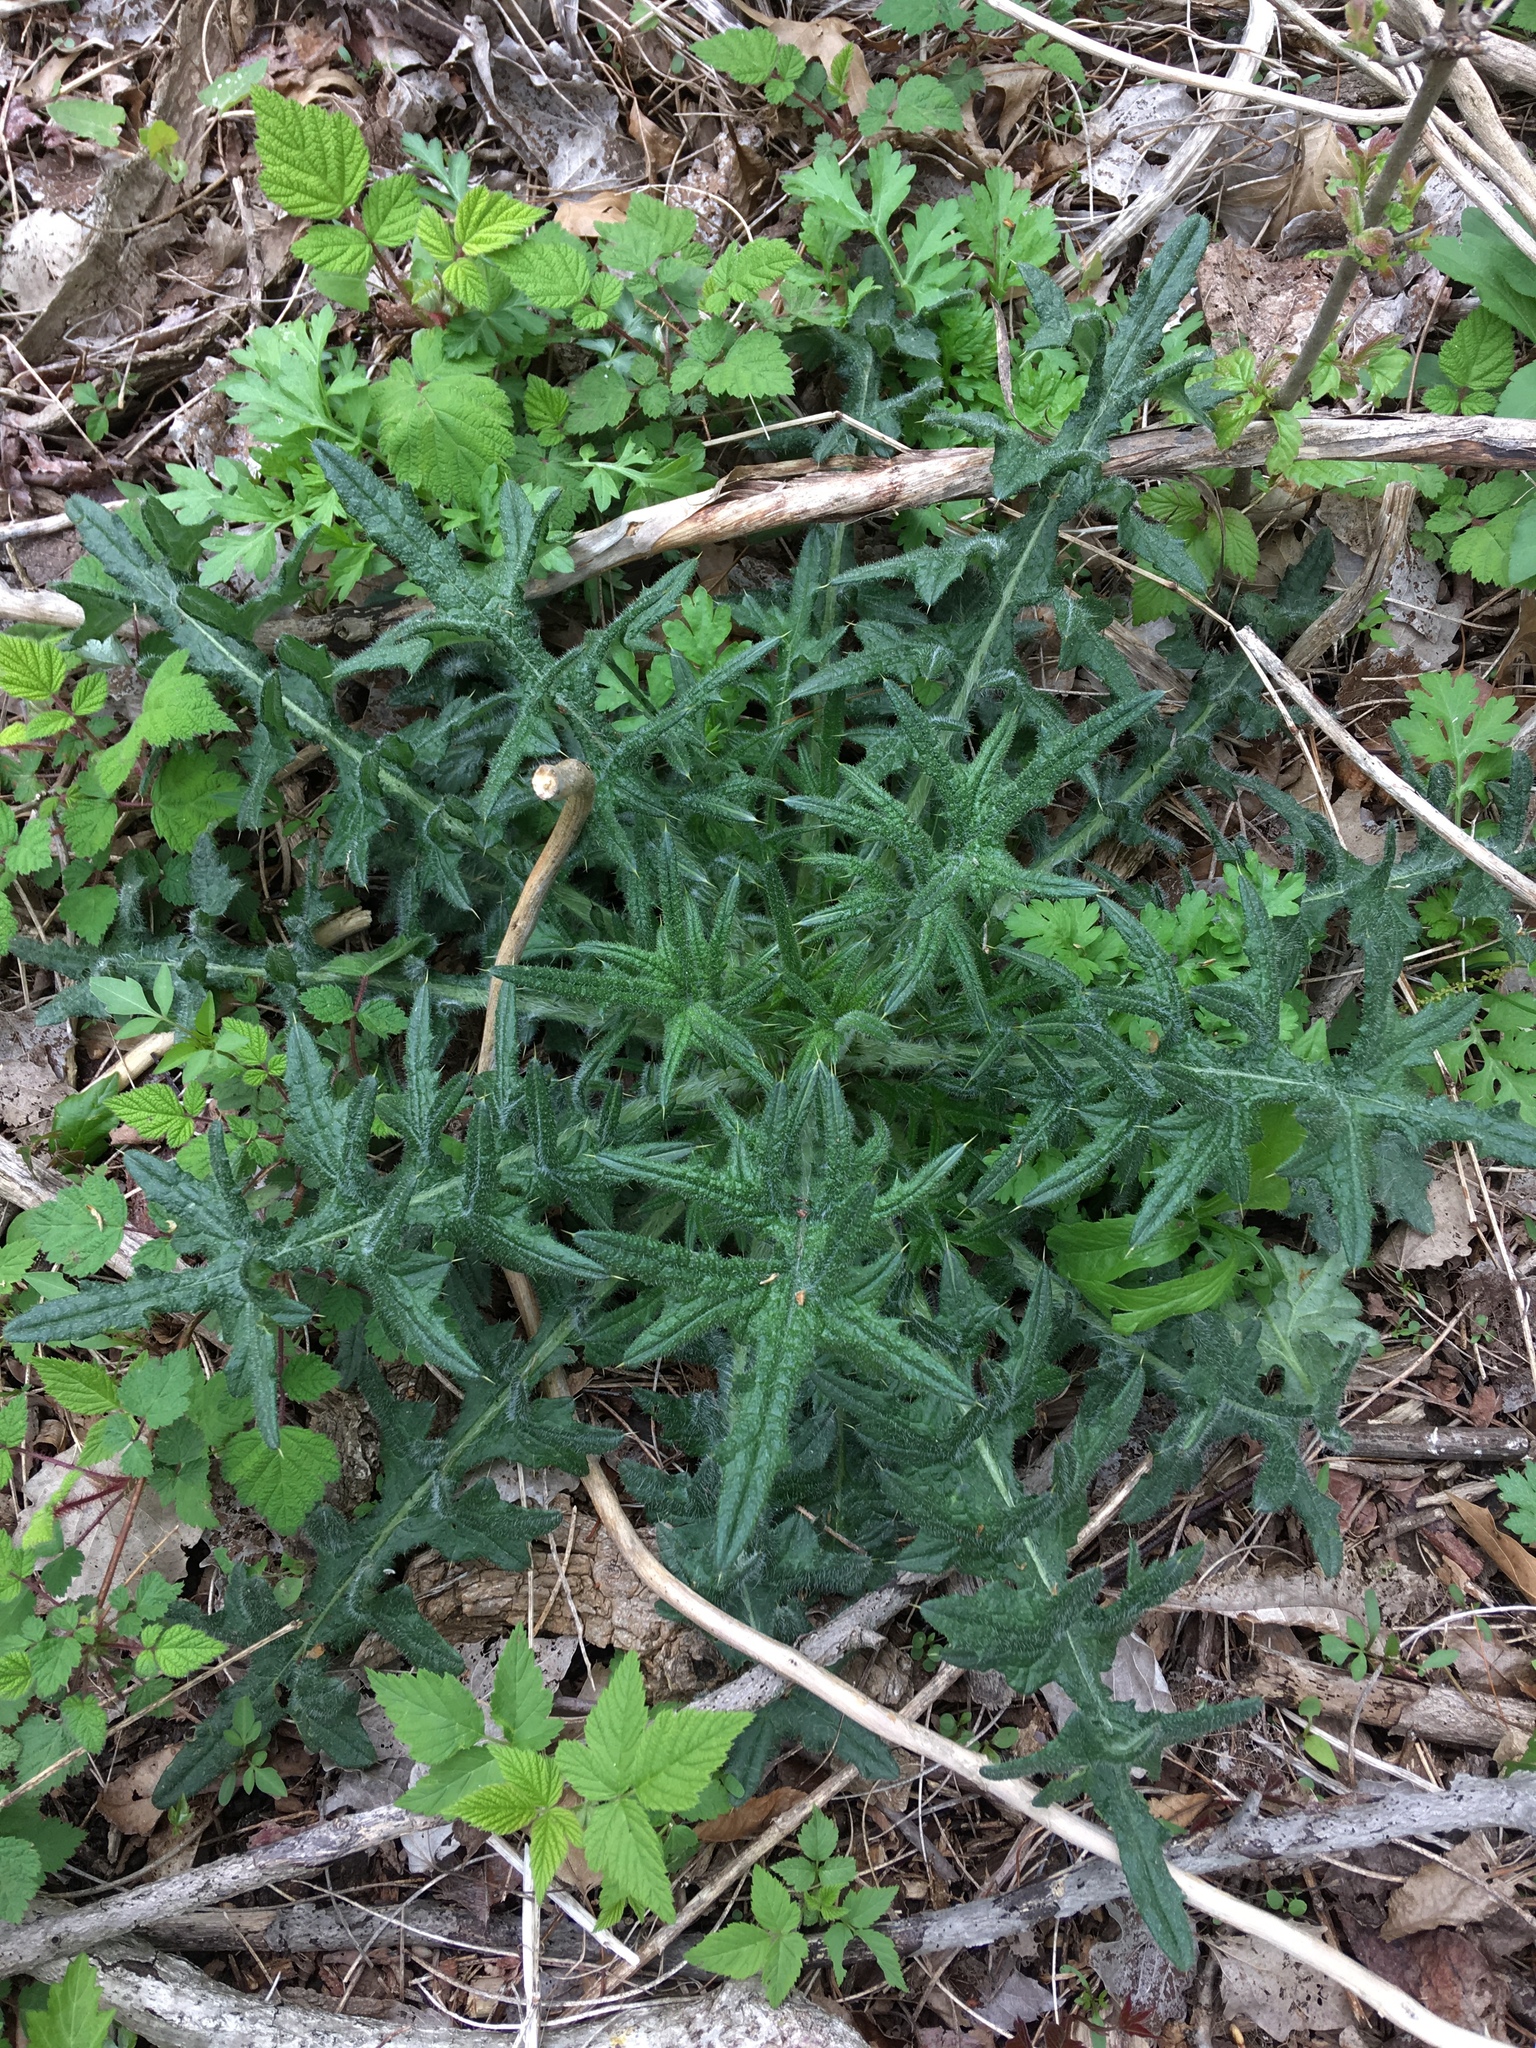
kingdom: Plantae
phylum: Tracheophyta
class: Magnoliopsida
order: Asterales
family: Asteraceae
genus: Cirsium
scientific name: Cirsium vulgare
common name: Bull thistle
